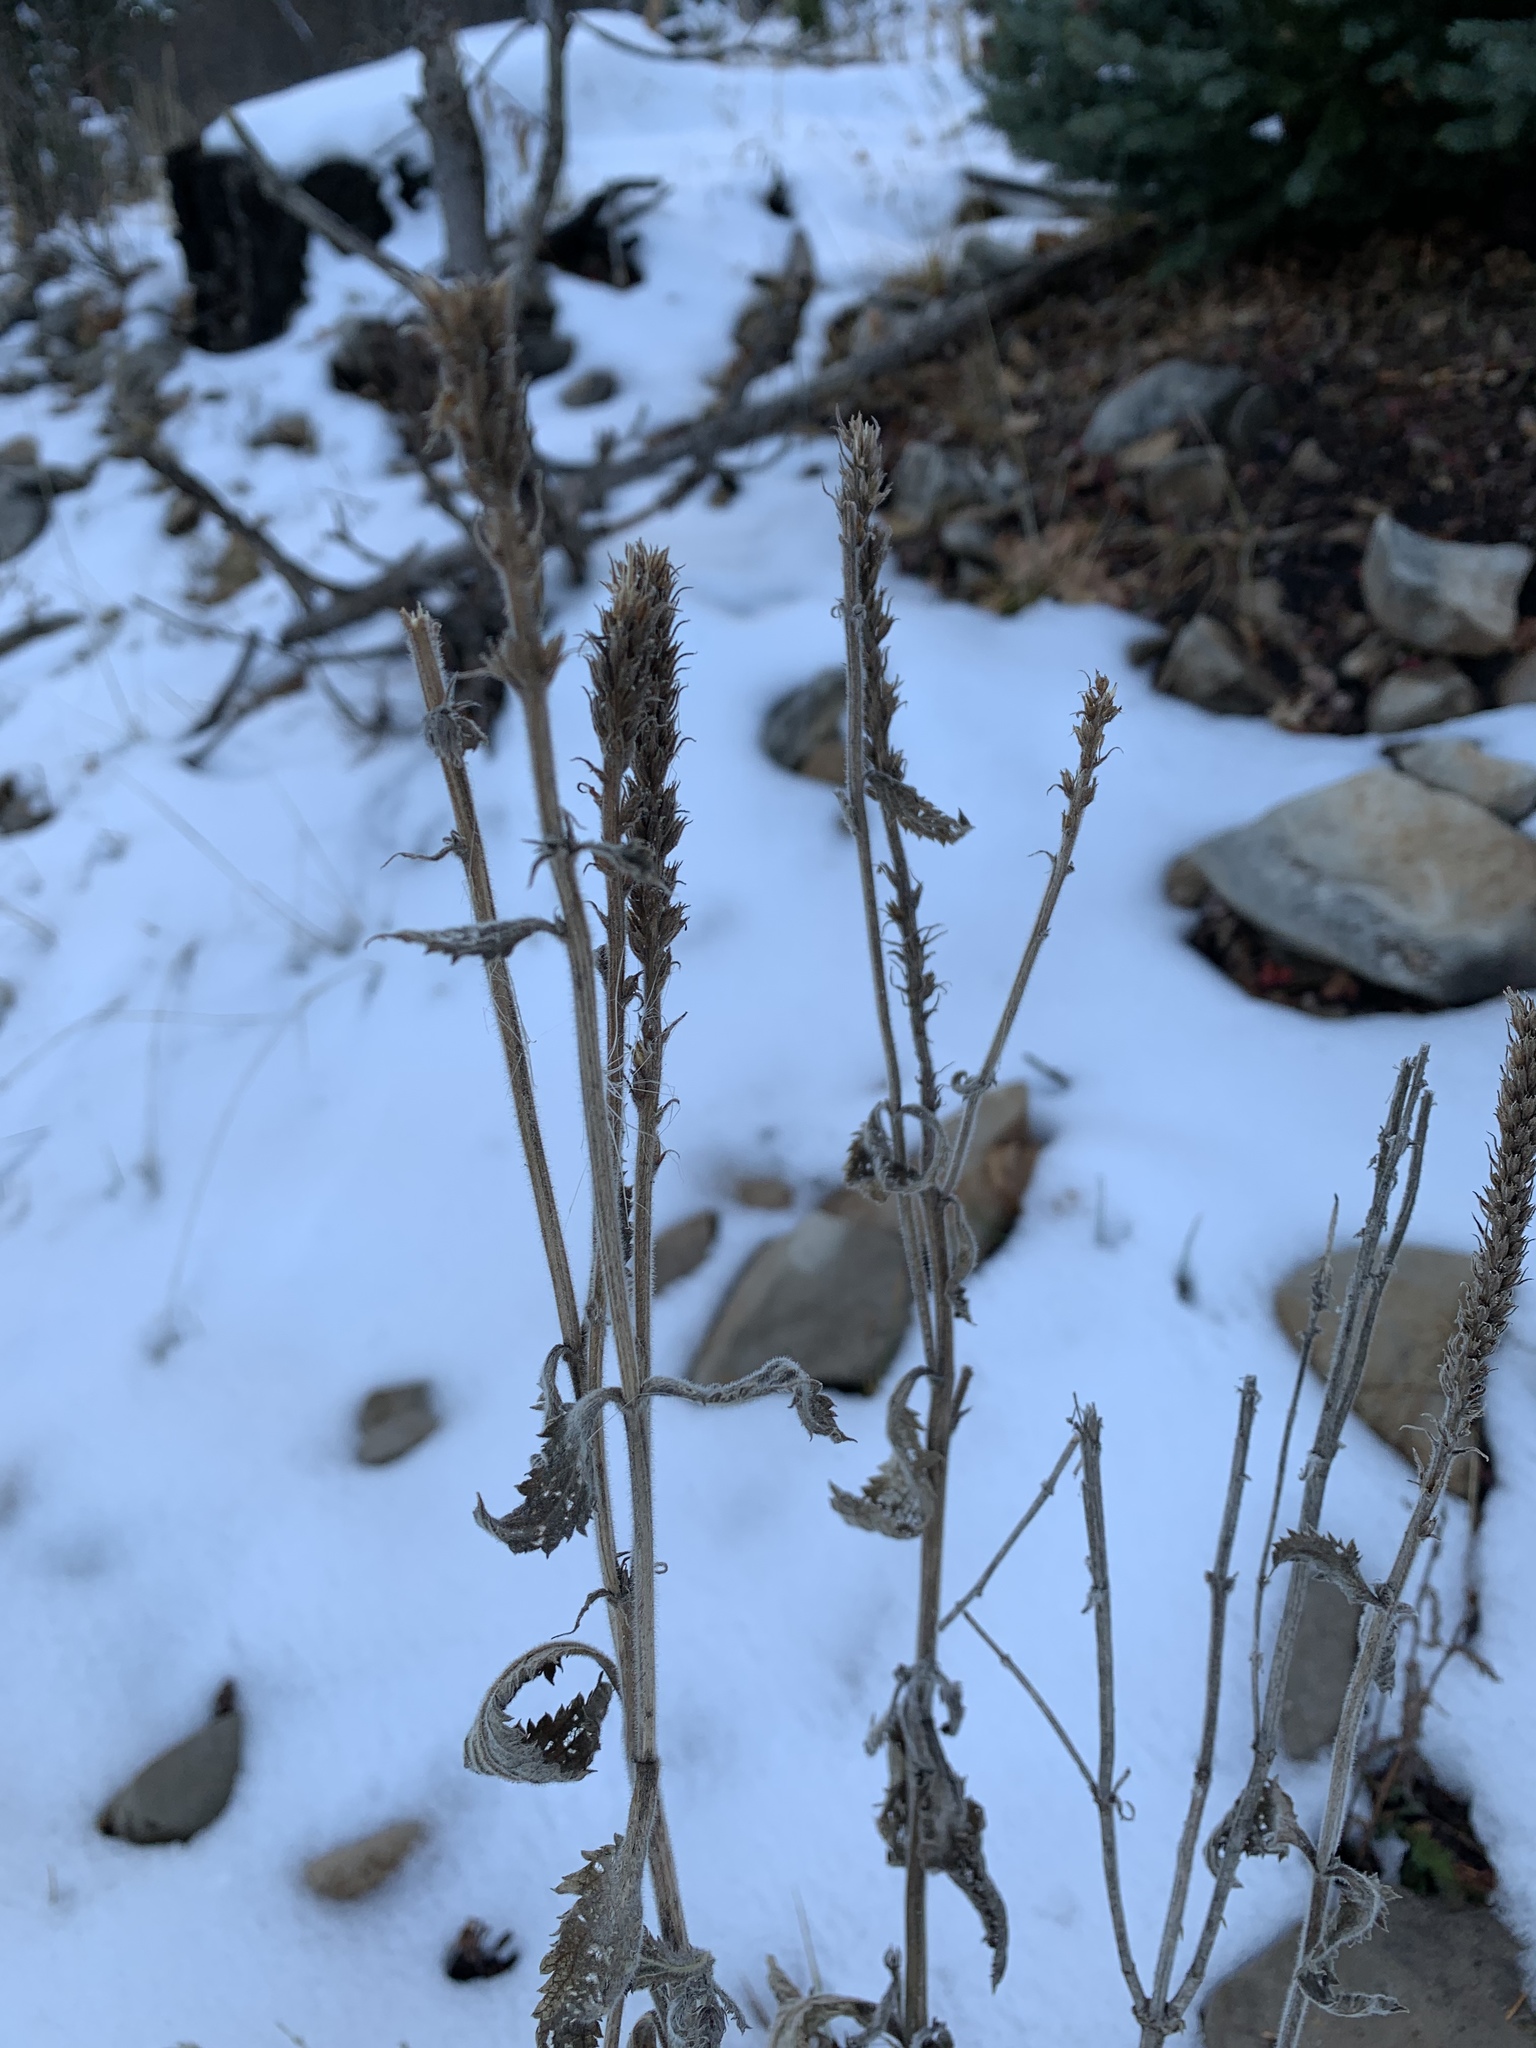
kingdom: Plantae
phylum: Tracheophyta
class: Magnoliopsida
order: Lamiales
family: Verbenaceae
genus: Verbena
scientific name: Verbena macdougalii
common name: New mexico vervain
